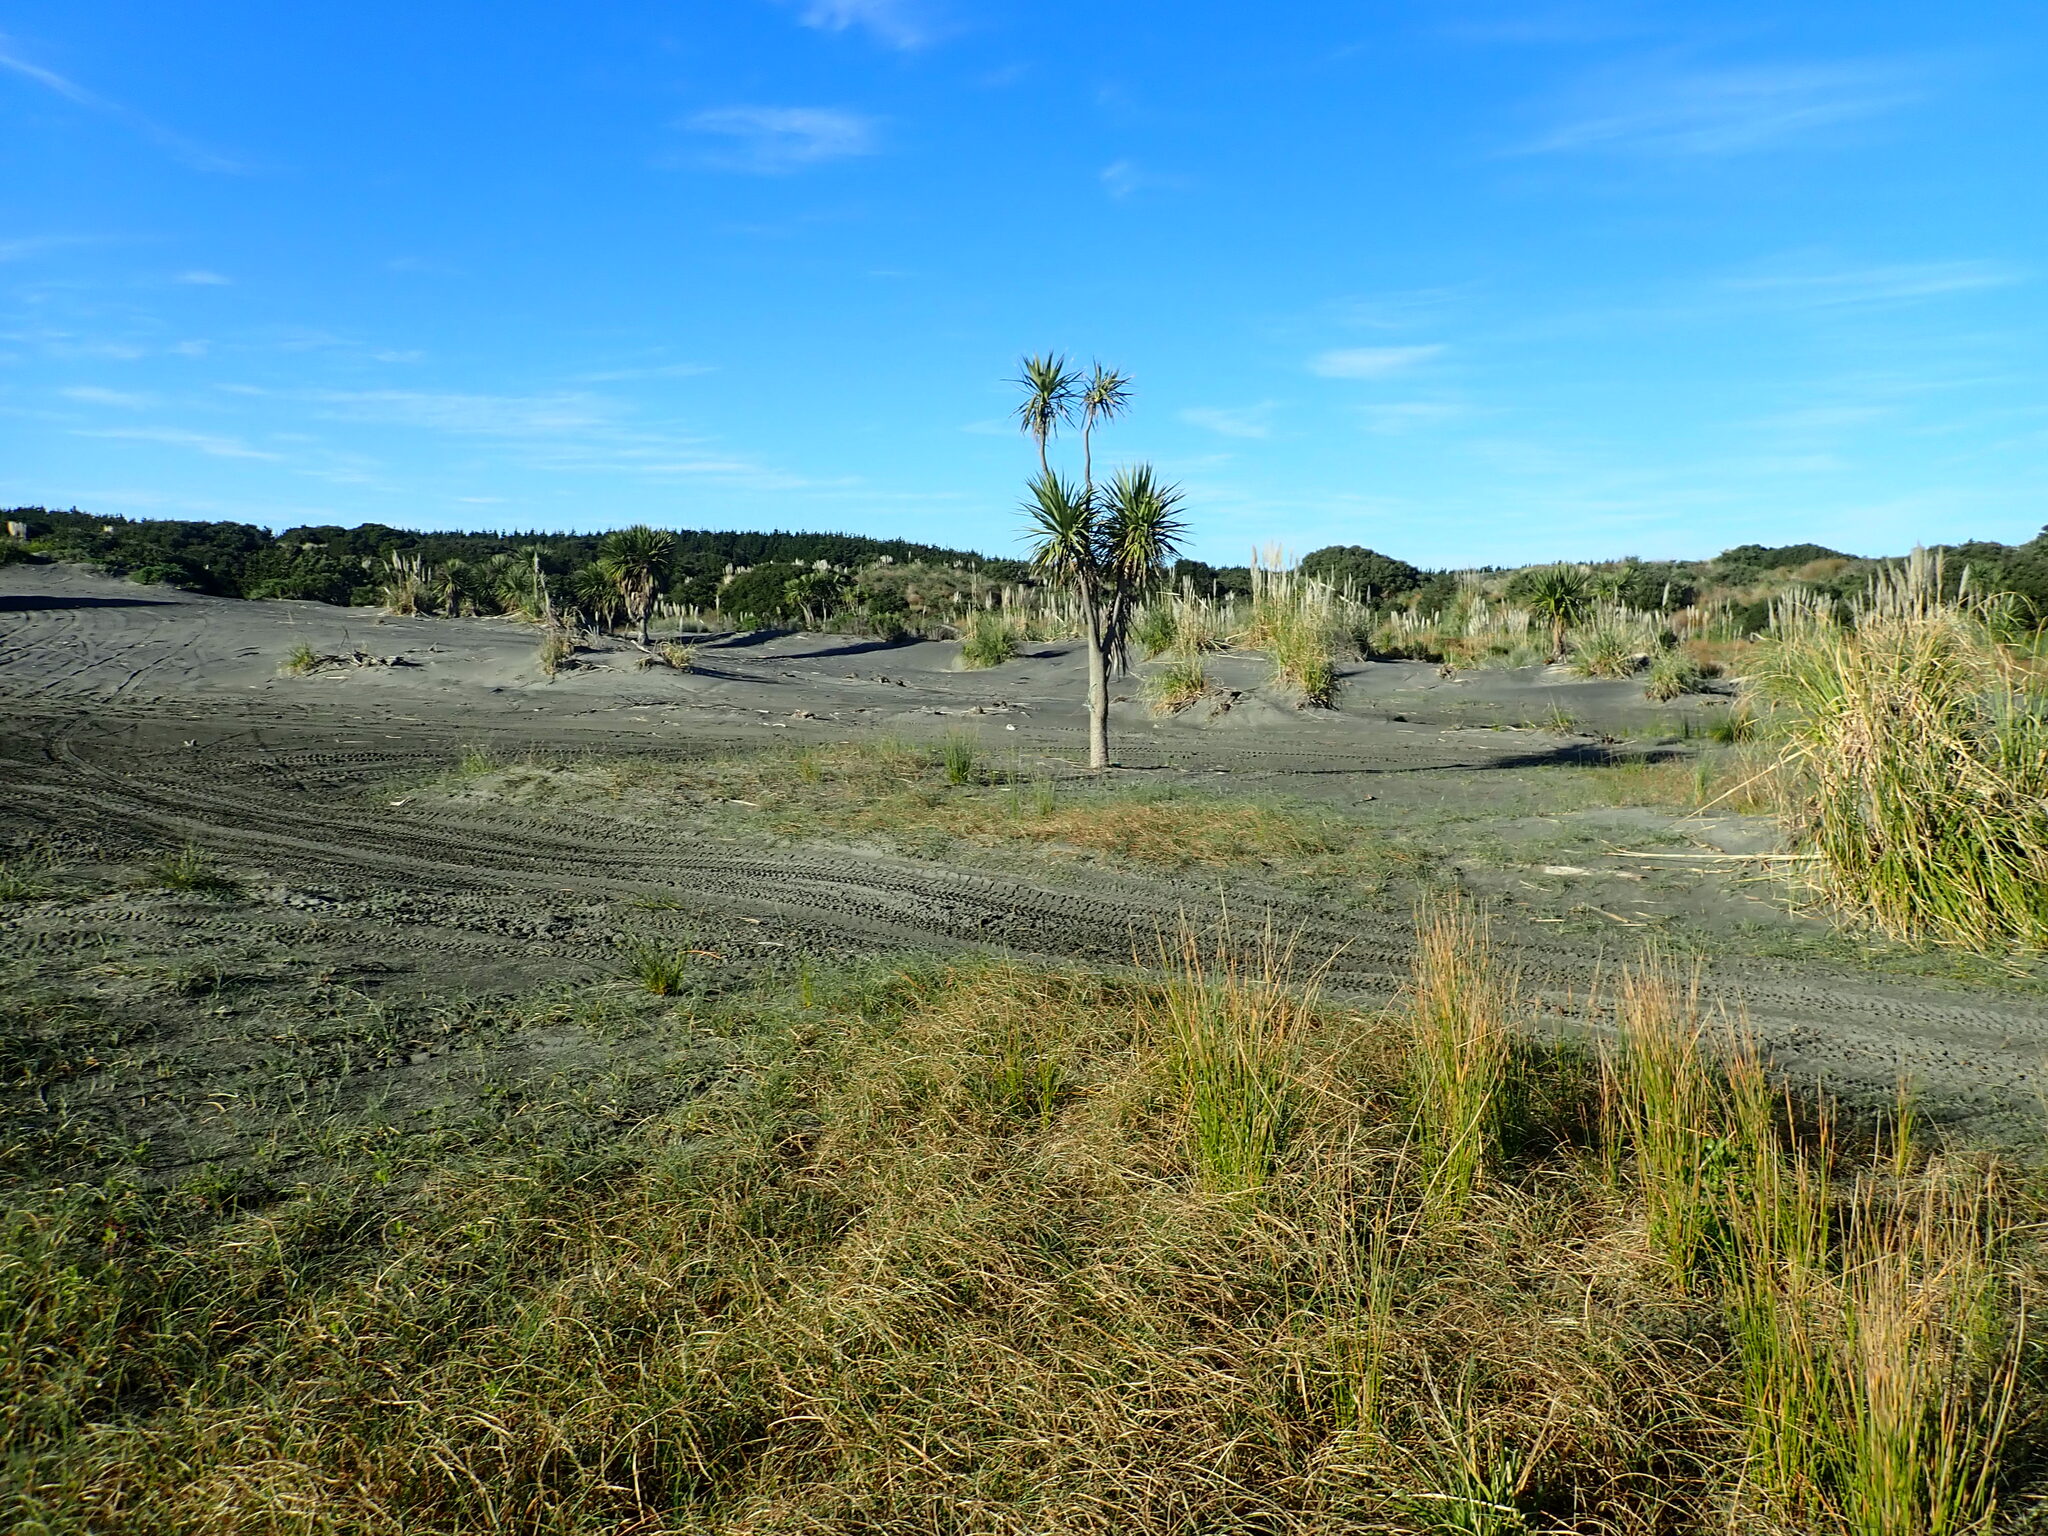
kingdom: Plantae
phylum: Tracheophyta
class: Liliopsida
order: Asparagales
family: Asparagaceae
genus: Cordyline
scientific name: Cordyline australis
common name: Cabbage-palm
